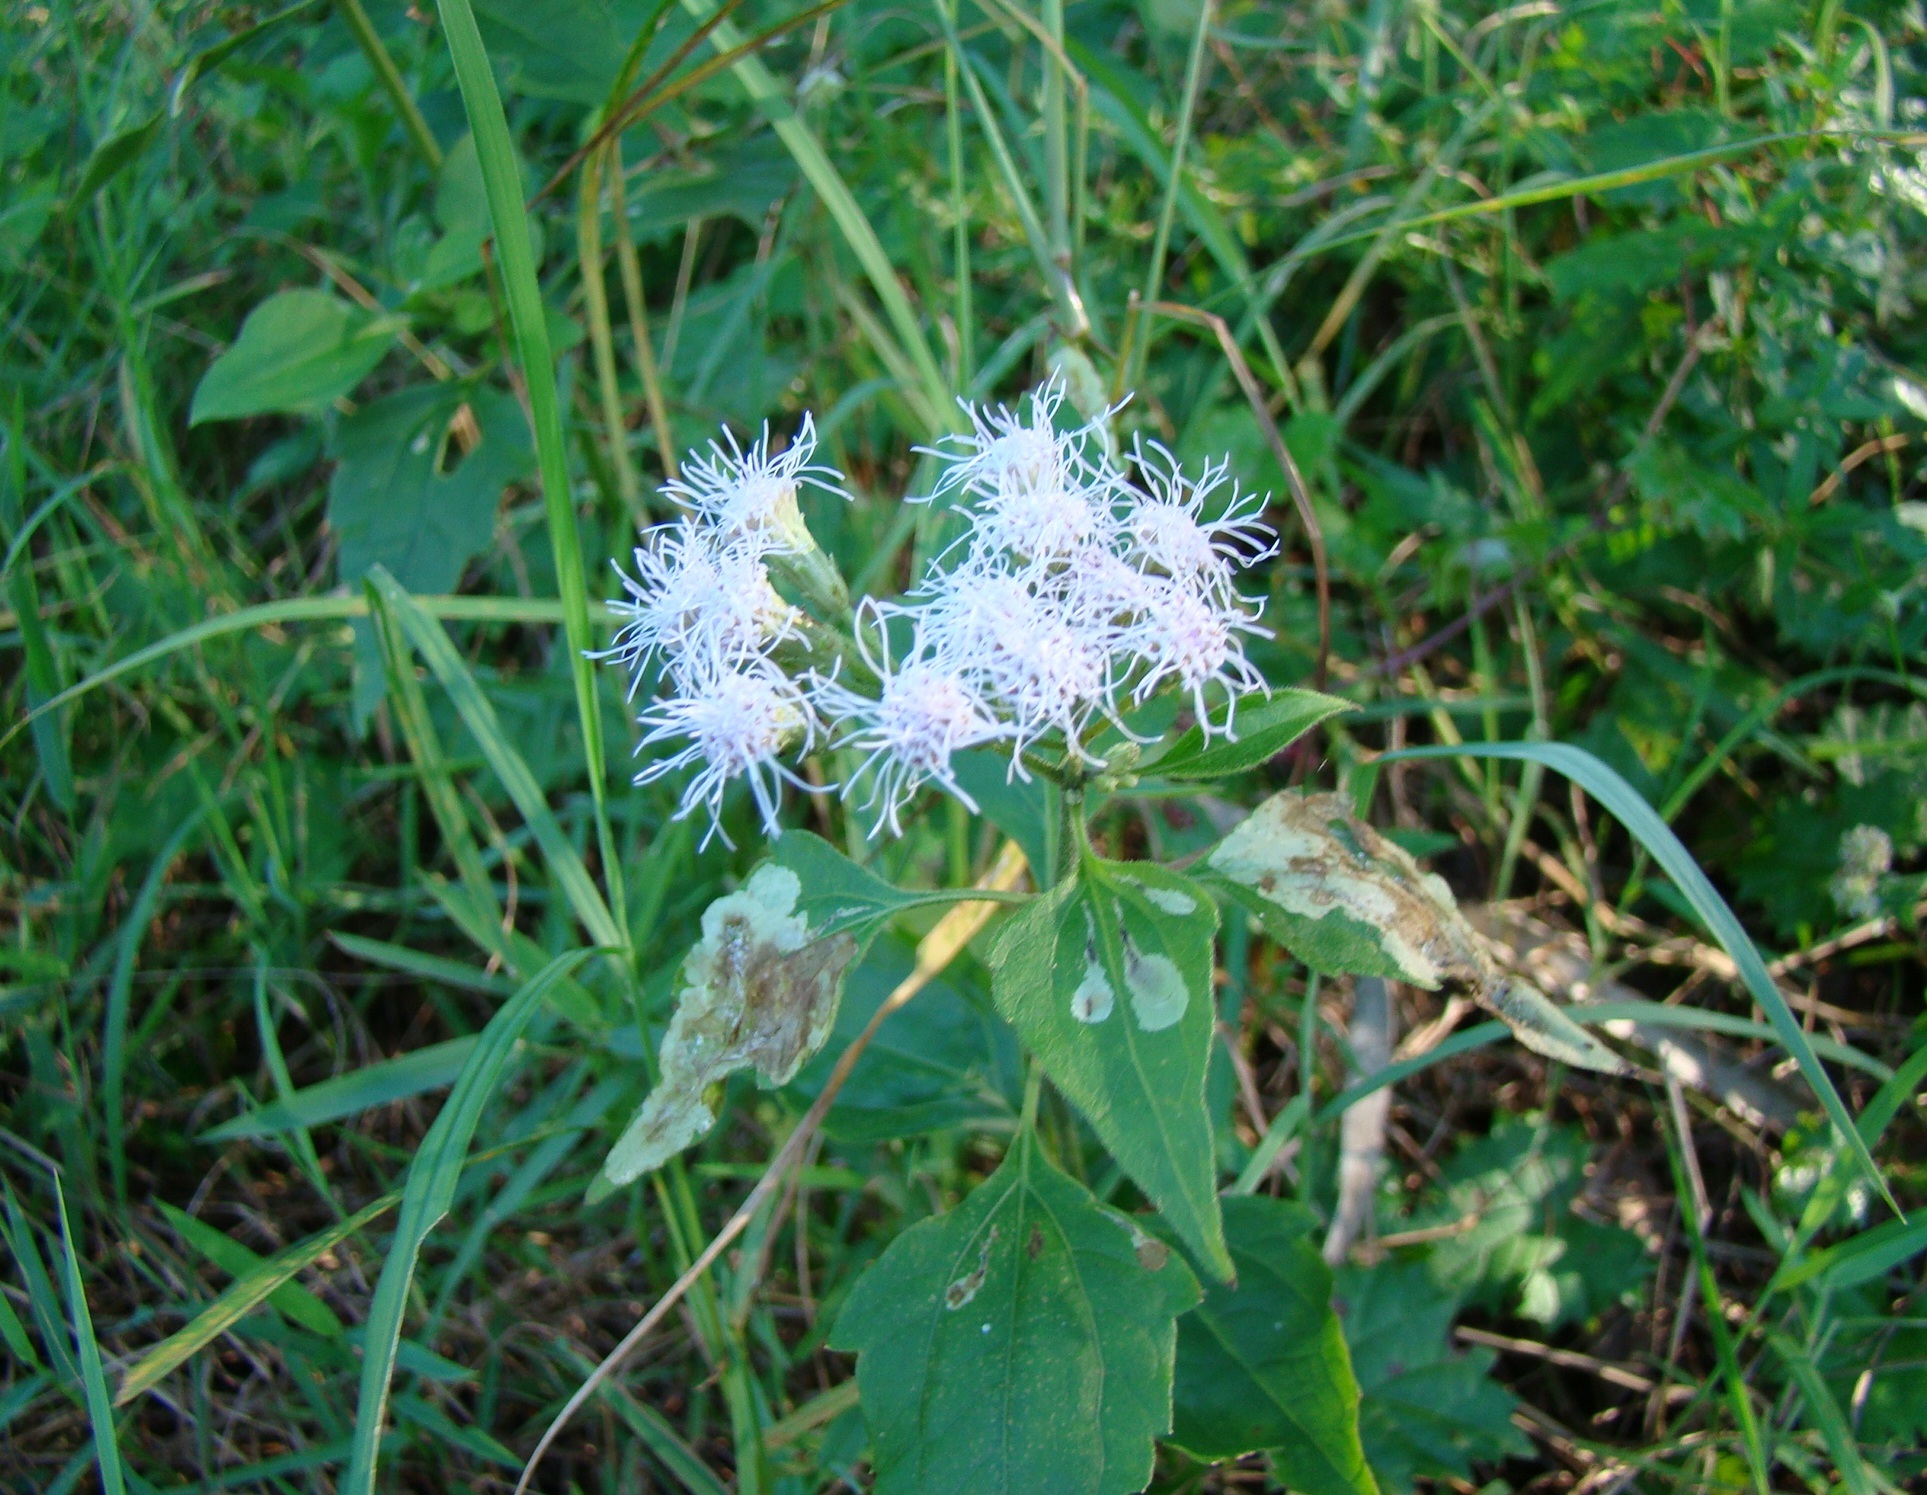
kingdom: Plantae
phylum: Tracheophyta
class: Magnoliopsida
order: Asterales
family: Asteraceae
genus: Chromolaena
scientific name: Chromolaena odorata
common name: Siamweed
